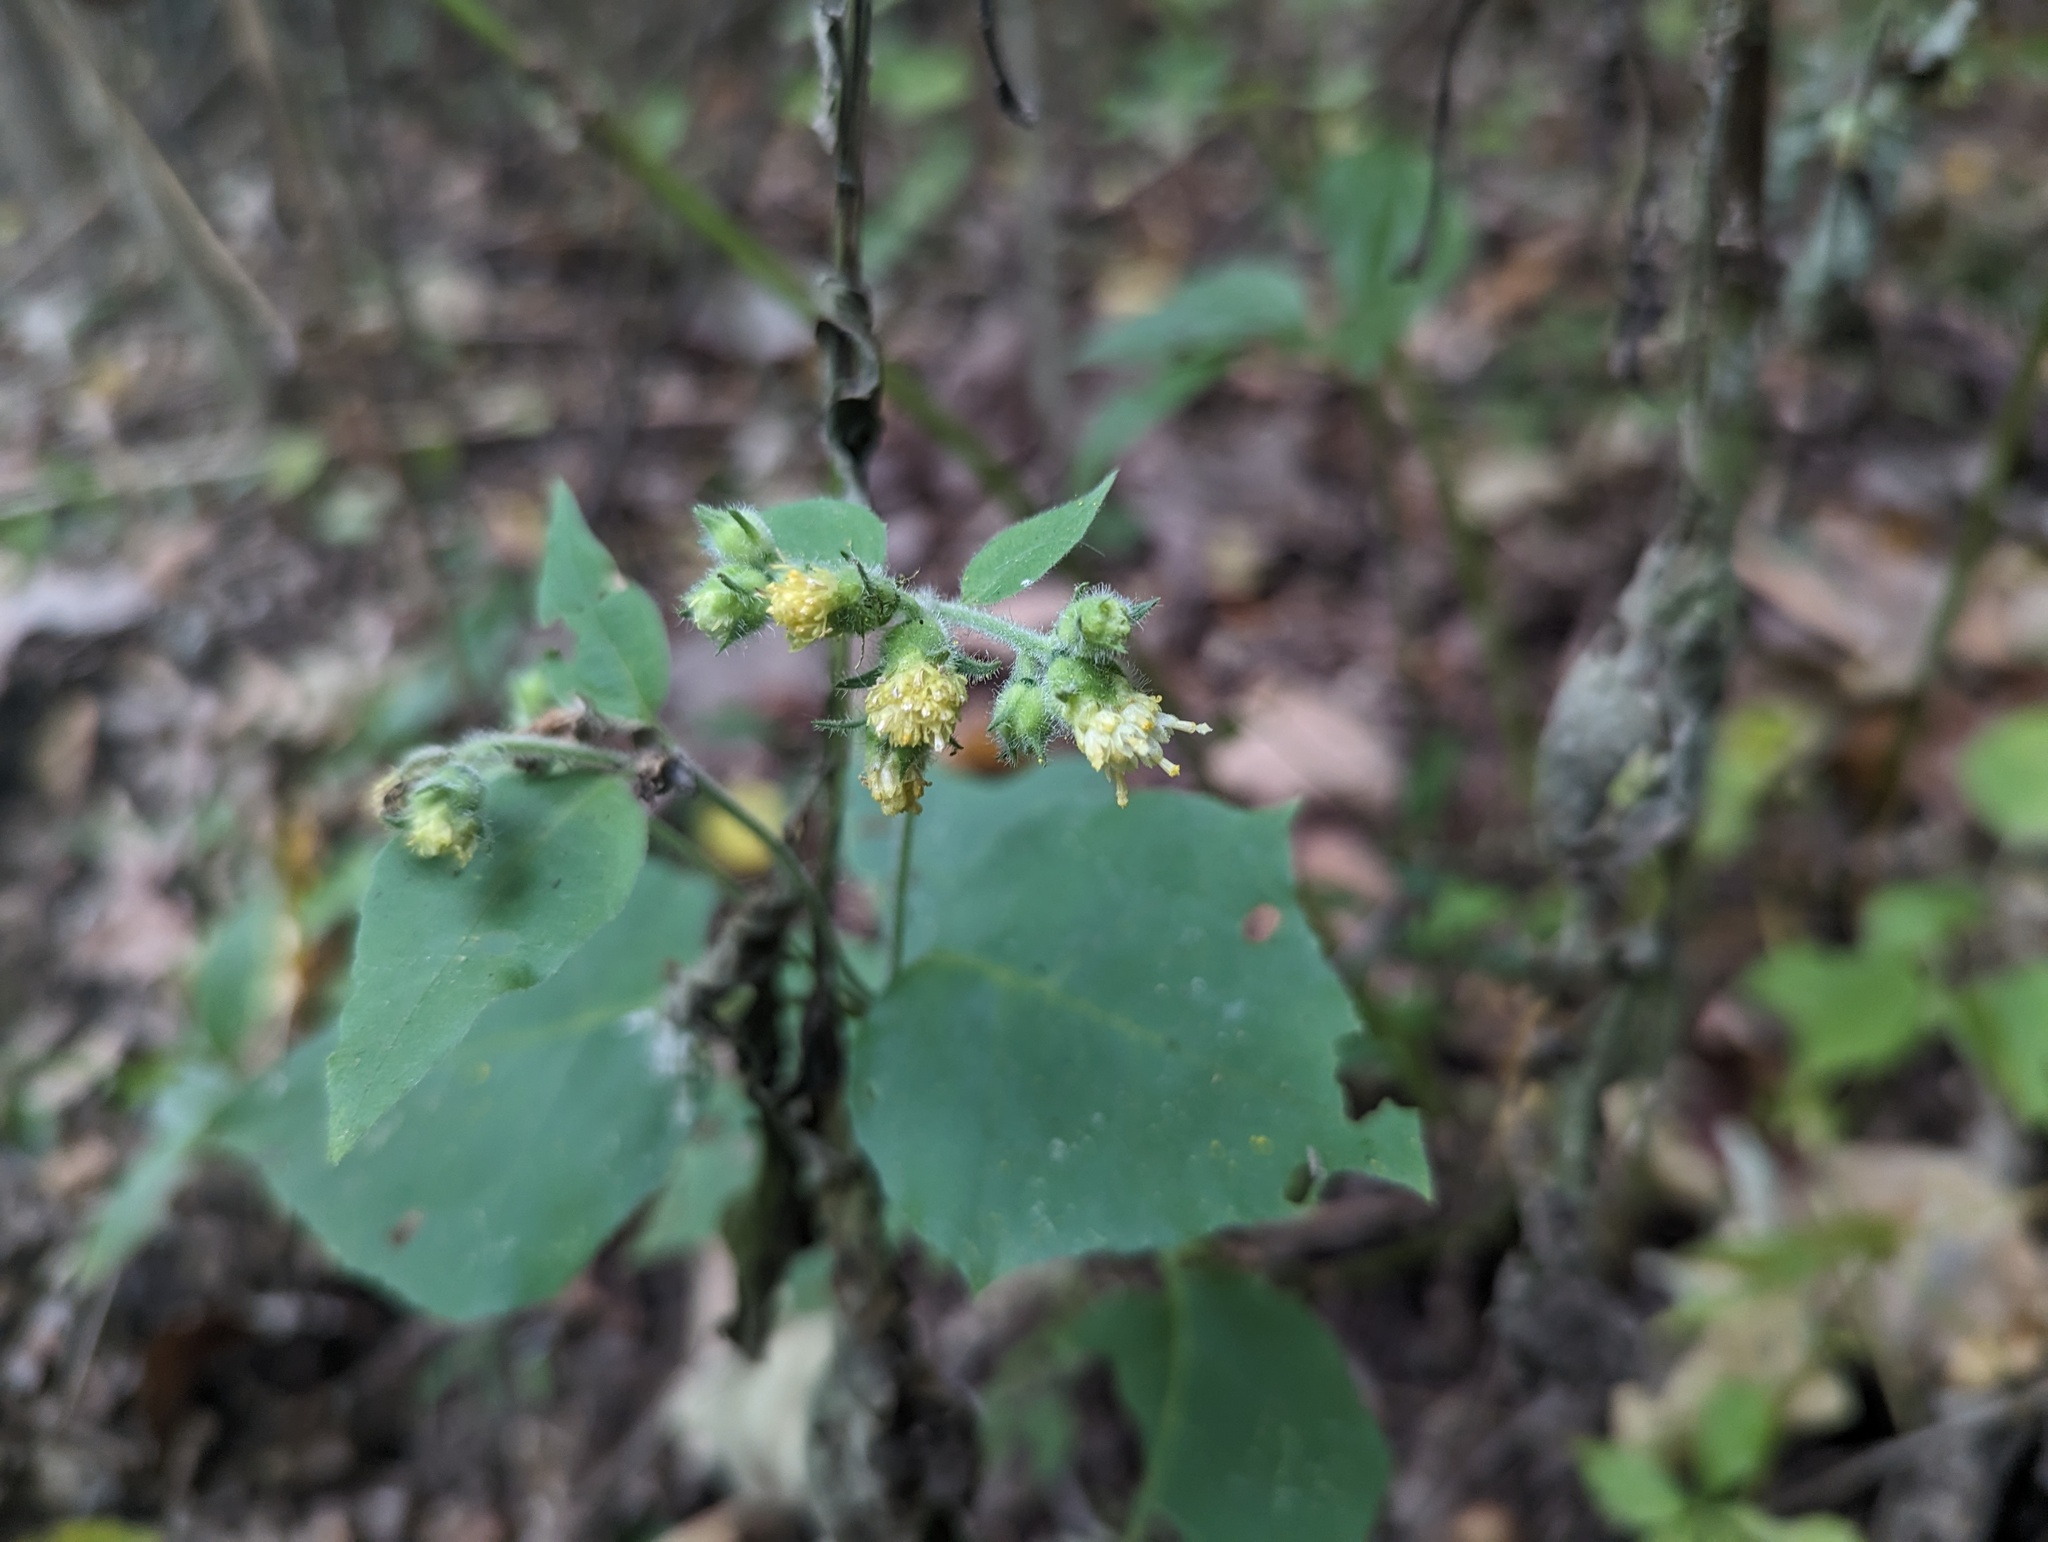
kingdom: Plantae
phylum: Tracheophyta
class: Magnoliopsida
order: Asterales
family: Asteraceae
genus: Polymnia
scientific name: Polymnia canadensis
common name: Pale-flowered leafcup
